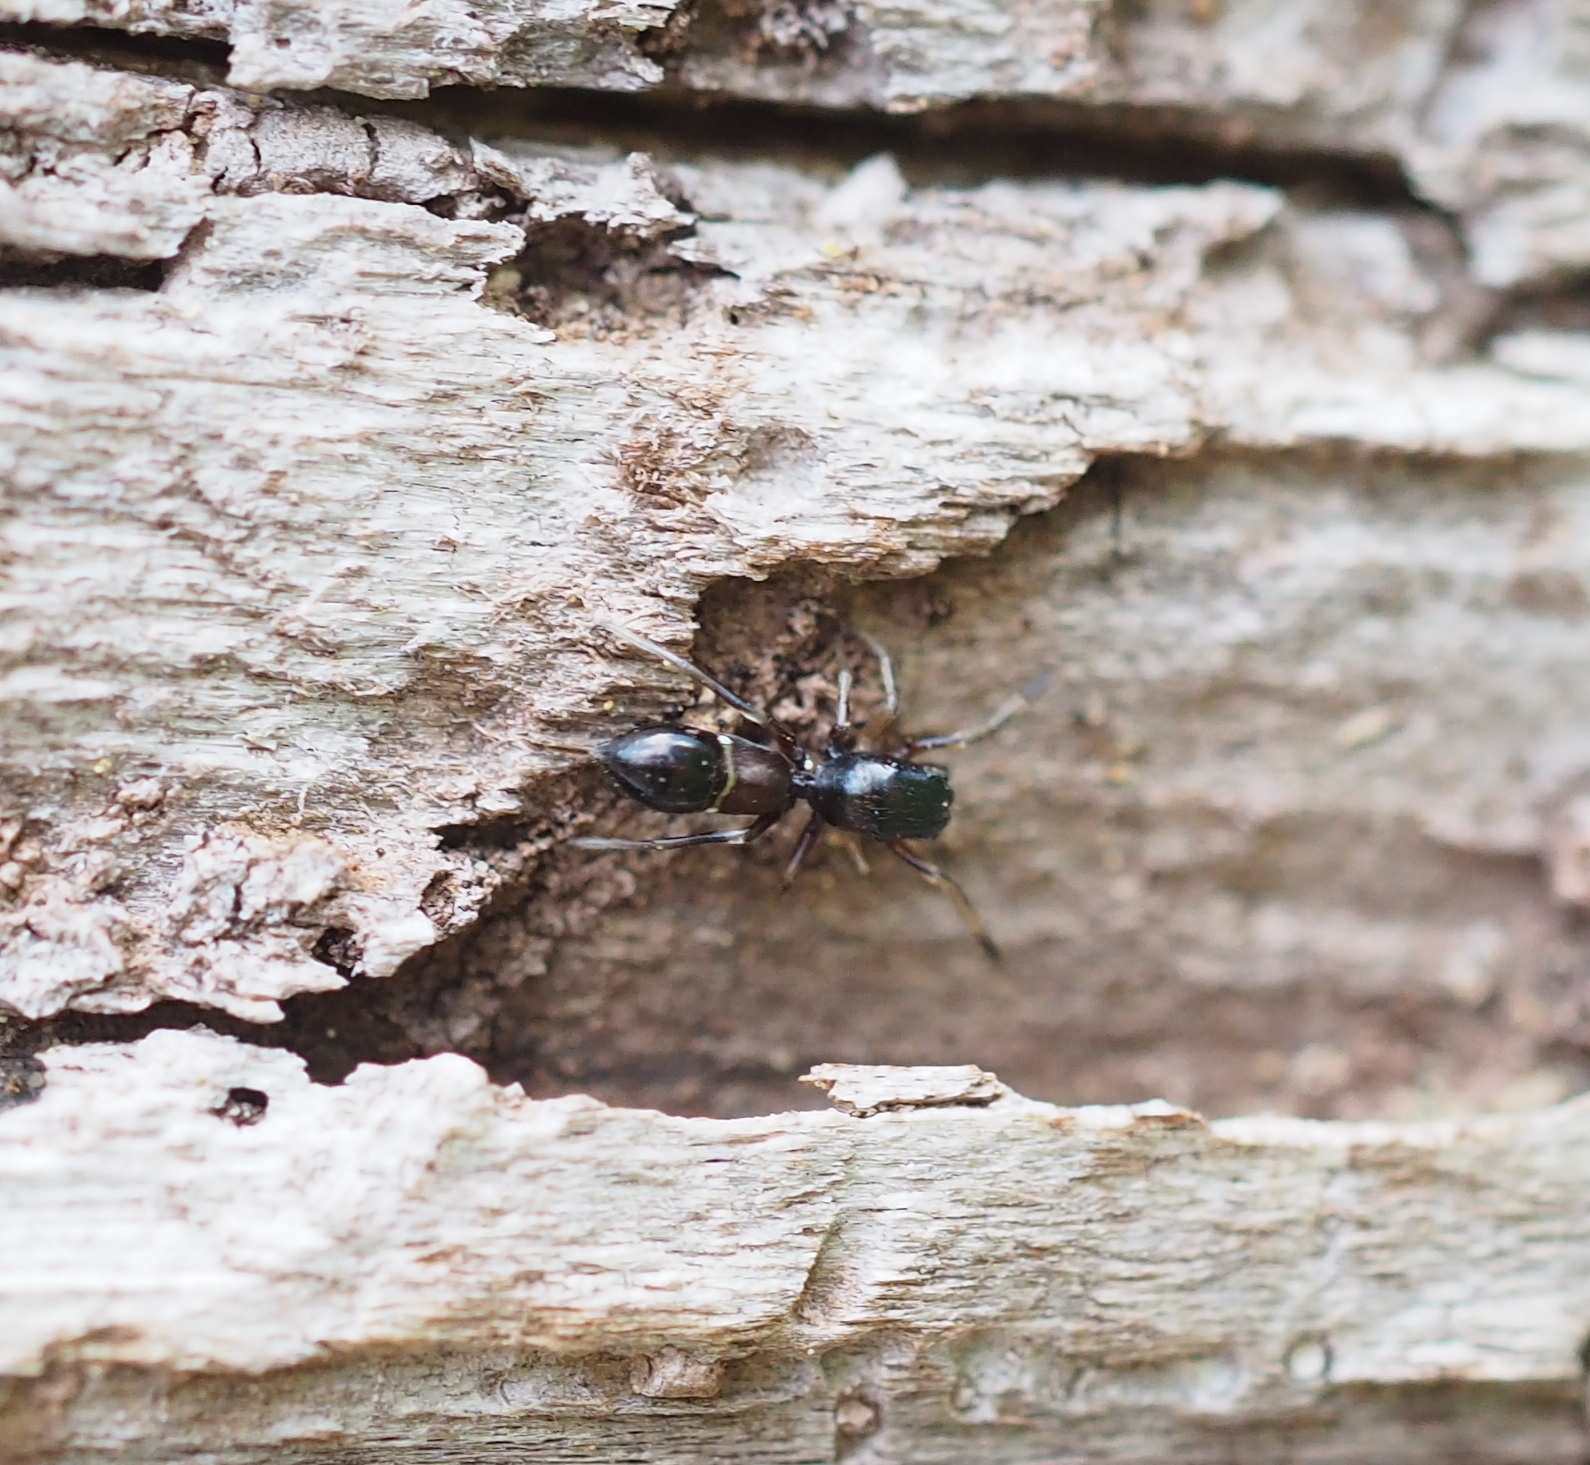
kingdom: Animalia
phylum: Arthropoda
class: Arachnida
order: Araneae
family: Salticidae
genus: Leptorchestes
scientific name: Leptorchestes berolinensis
